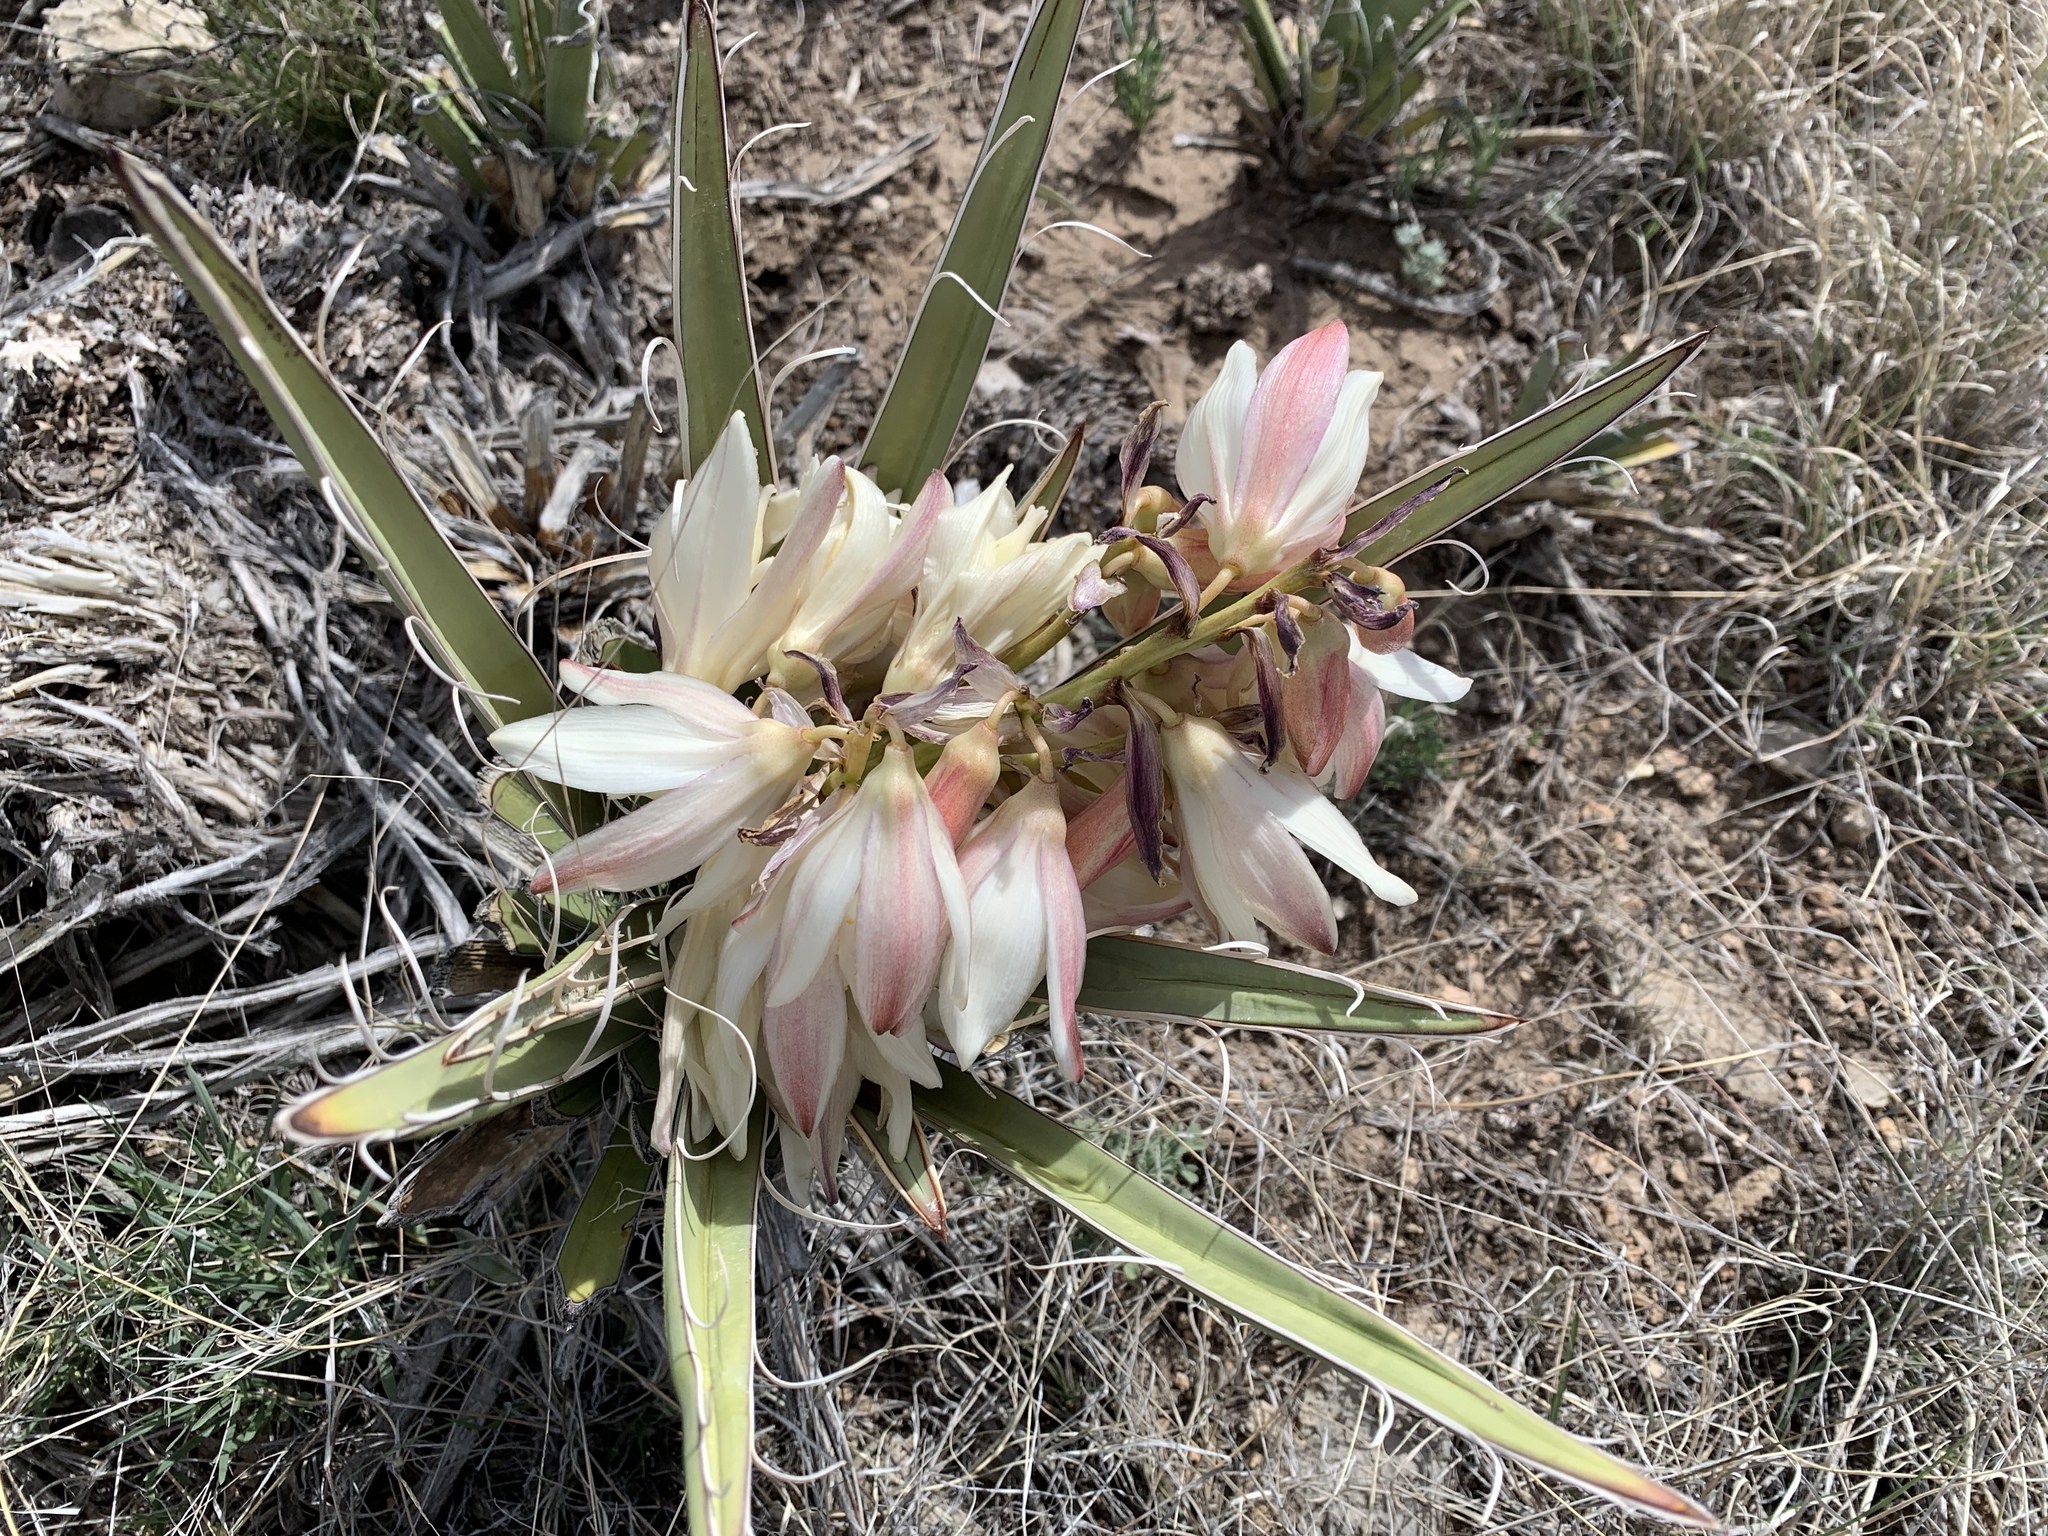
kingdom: Plantae
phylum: Tracheophyta
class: Liliopsida
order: Asparagales
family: Asparagaceae
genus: Yucca
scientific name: Yucca baccata
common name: Banana yucca
